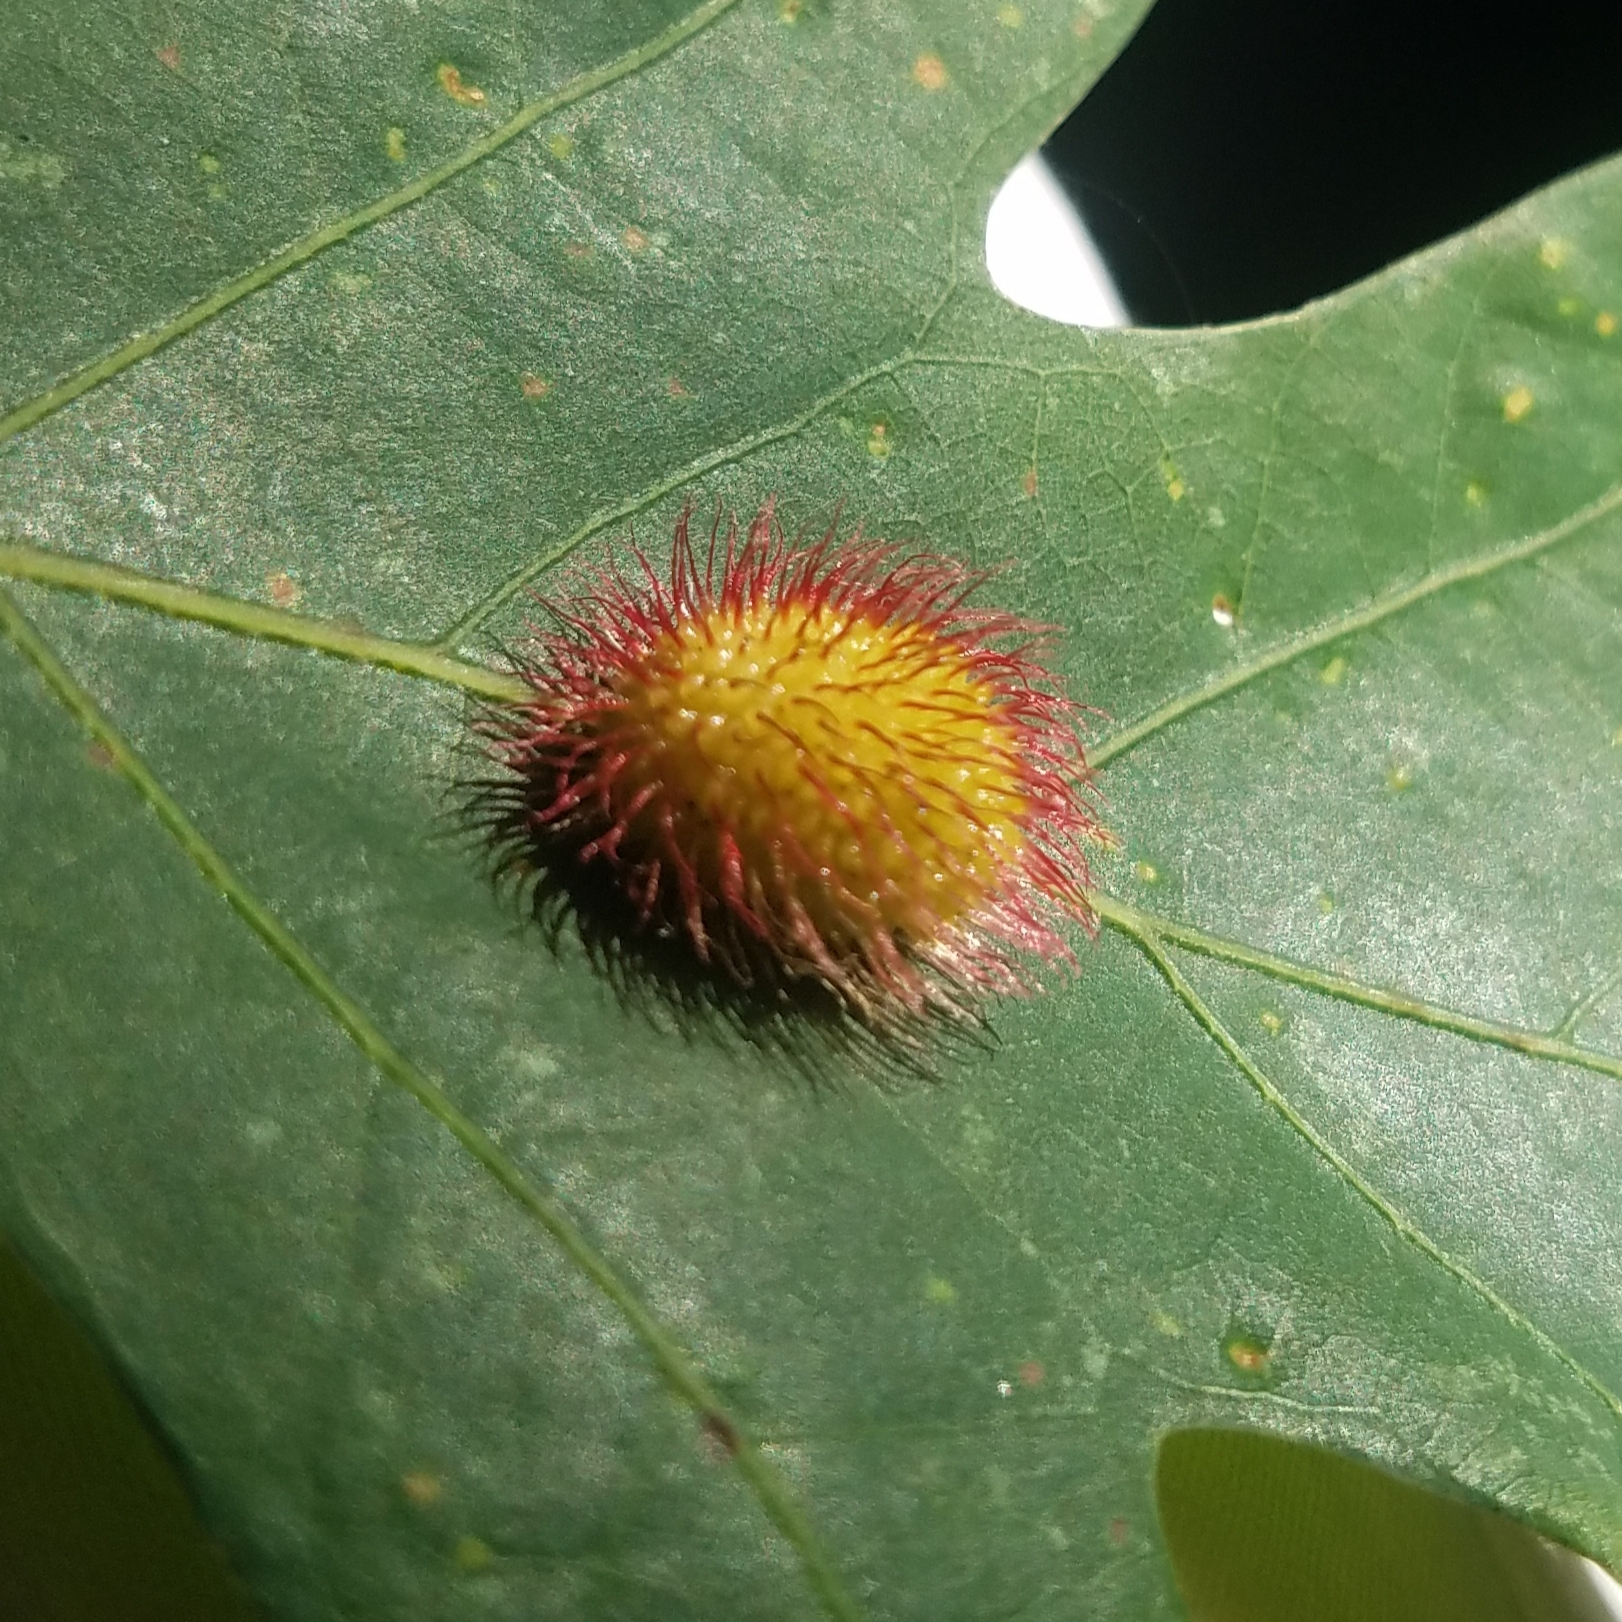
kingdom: Animalia
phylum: Arthropoda
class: Insecta
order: Hymenoptera
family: Cynipidae
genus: Acraspis
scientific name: Acraspis erinacei
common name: Hedgehog gall wasp
